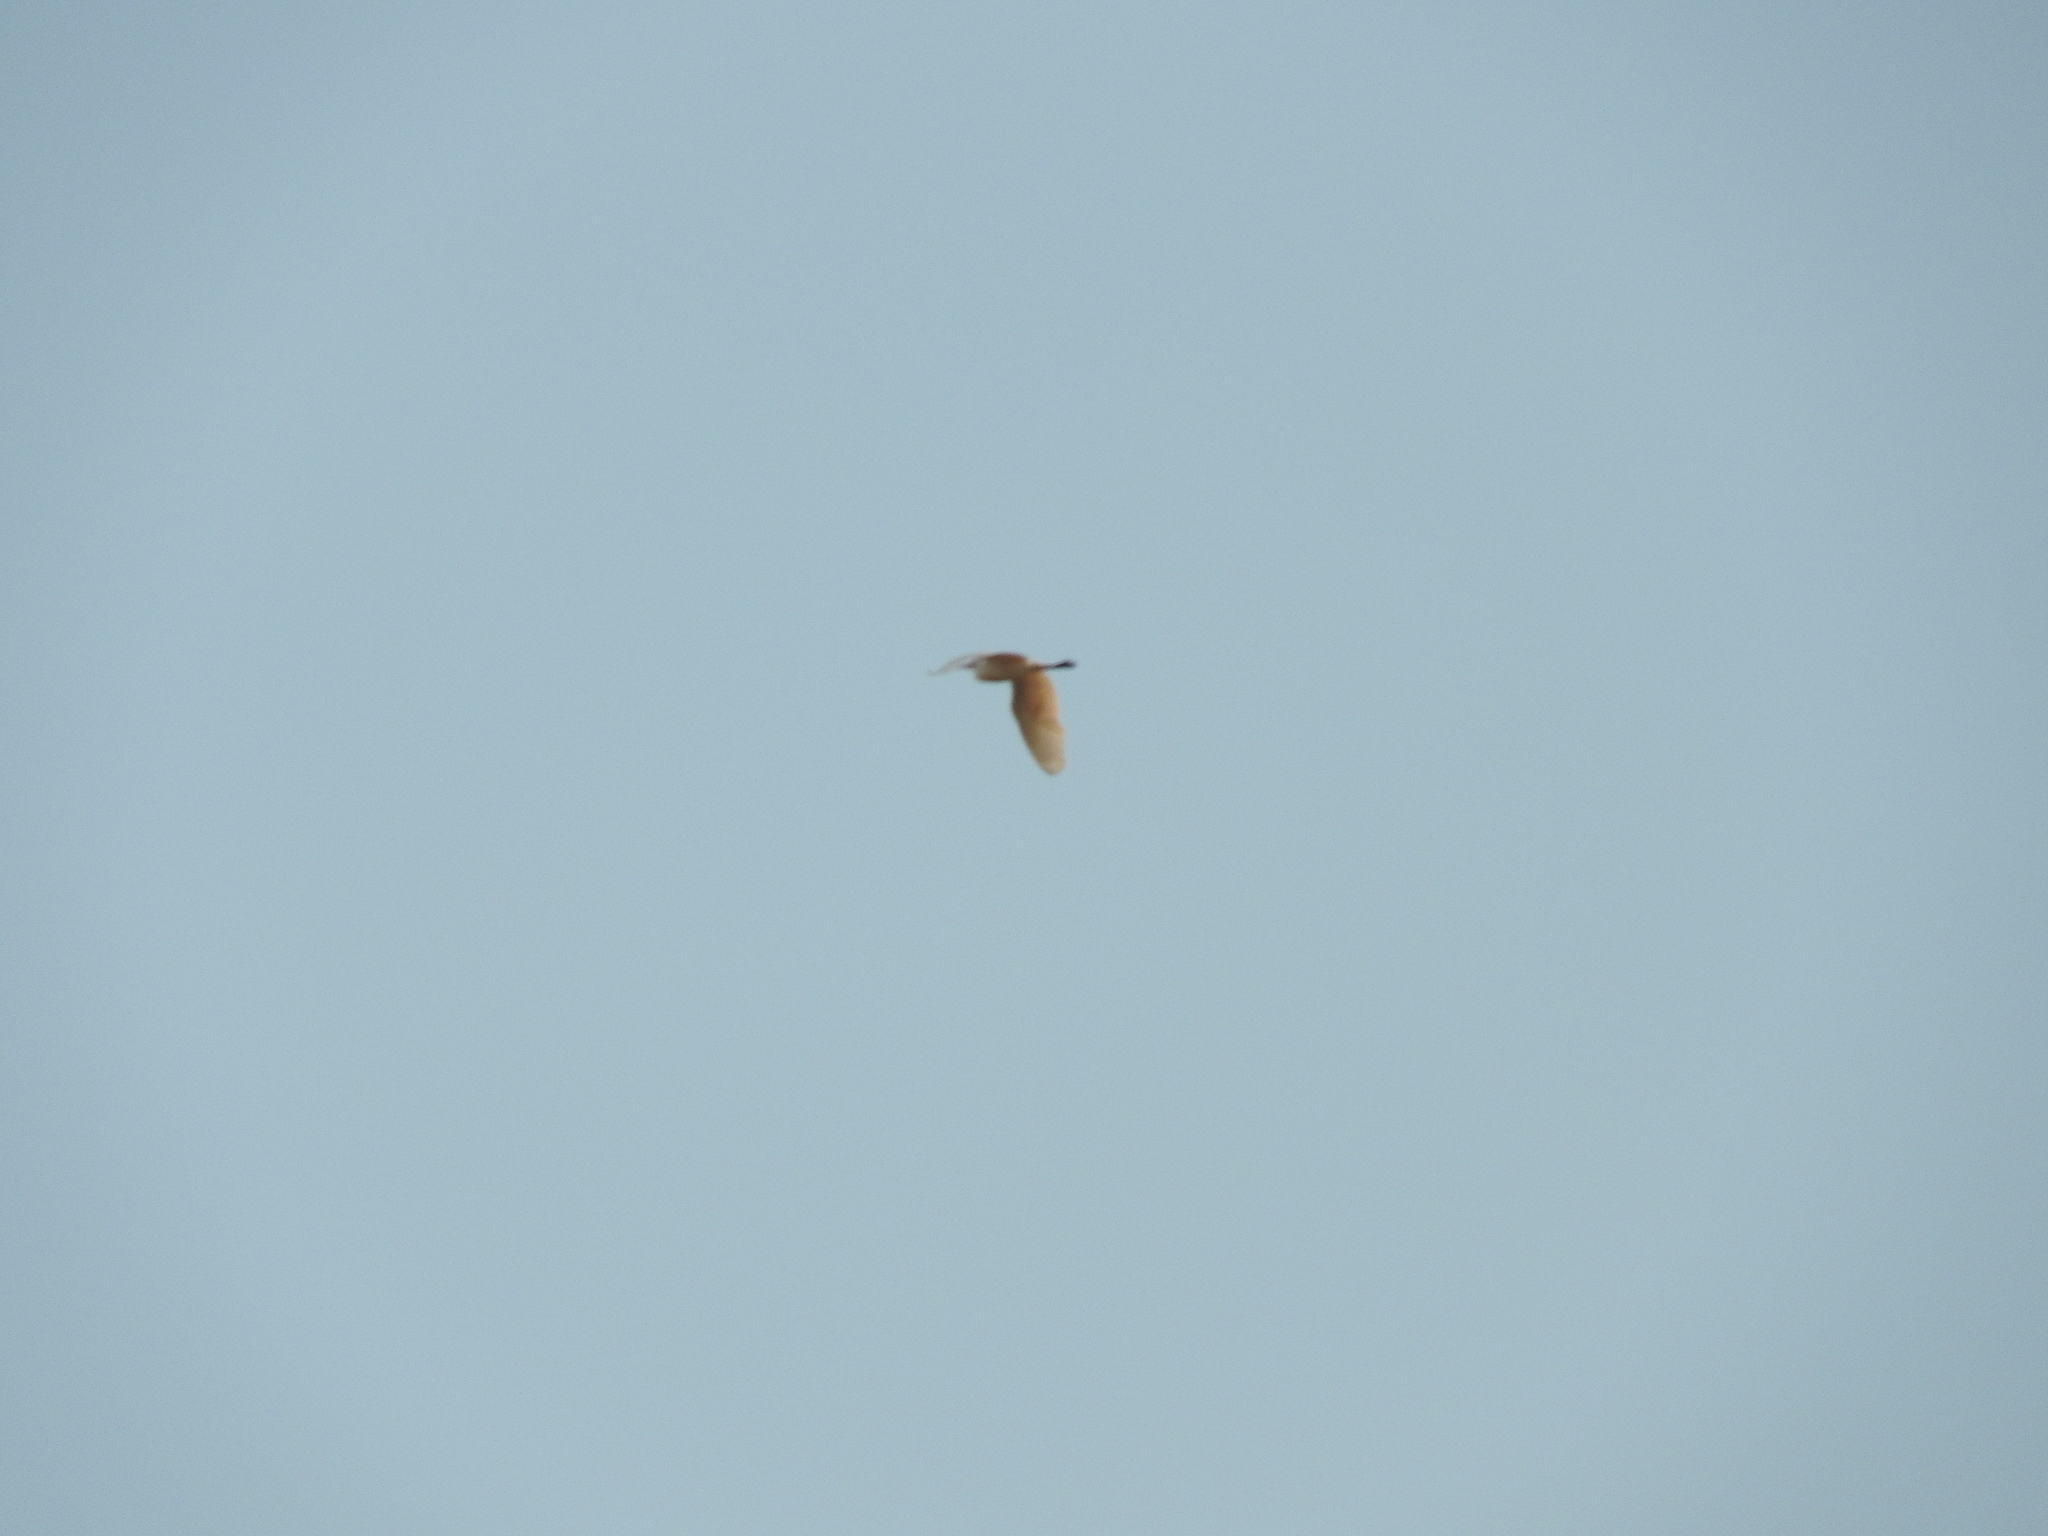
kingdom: Animalia
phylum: Chordata
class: Aves
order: Pelecaniformes
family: Ardeidae
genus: Bubulcus
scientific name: Bubulcus ibis
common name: Cattle egret
